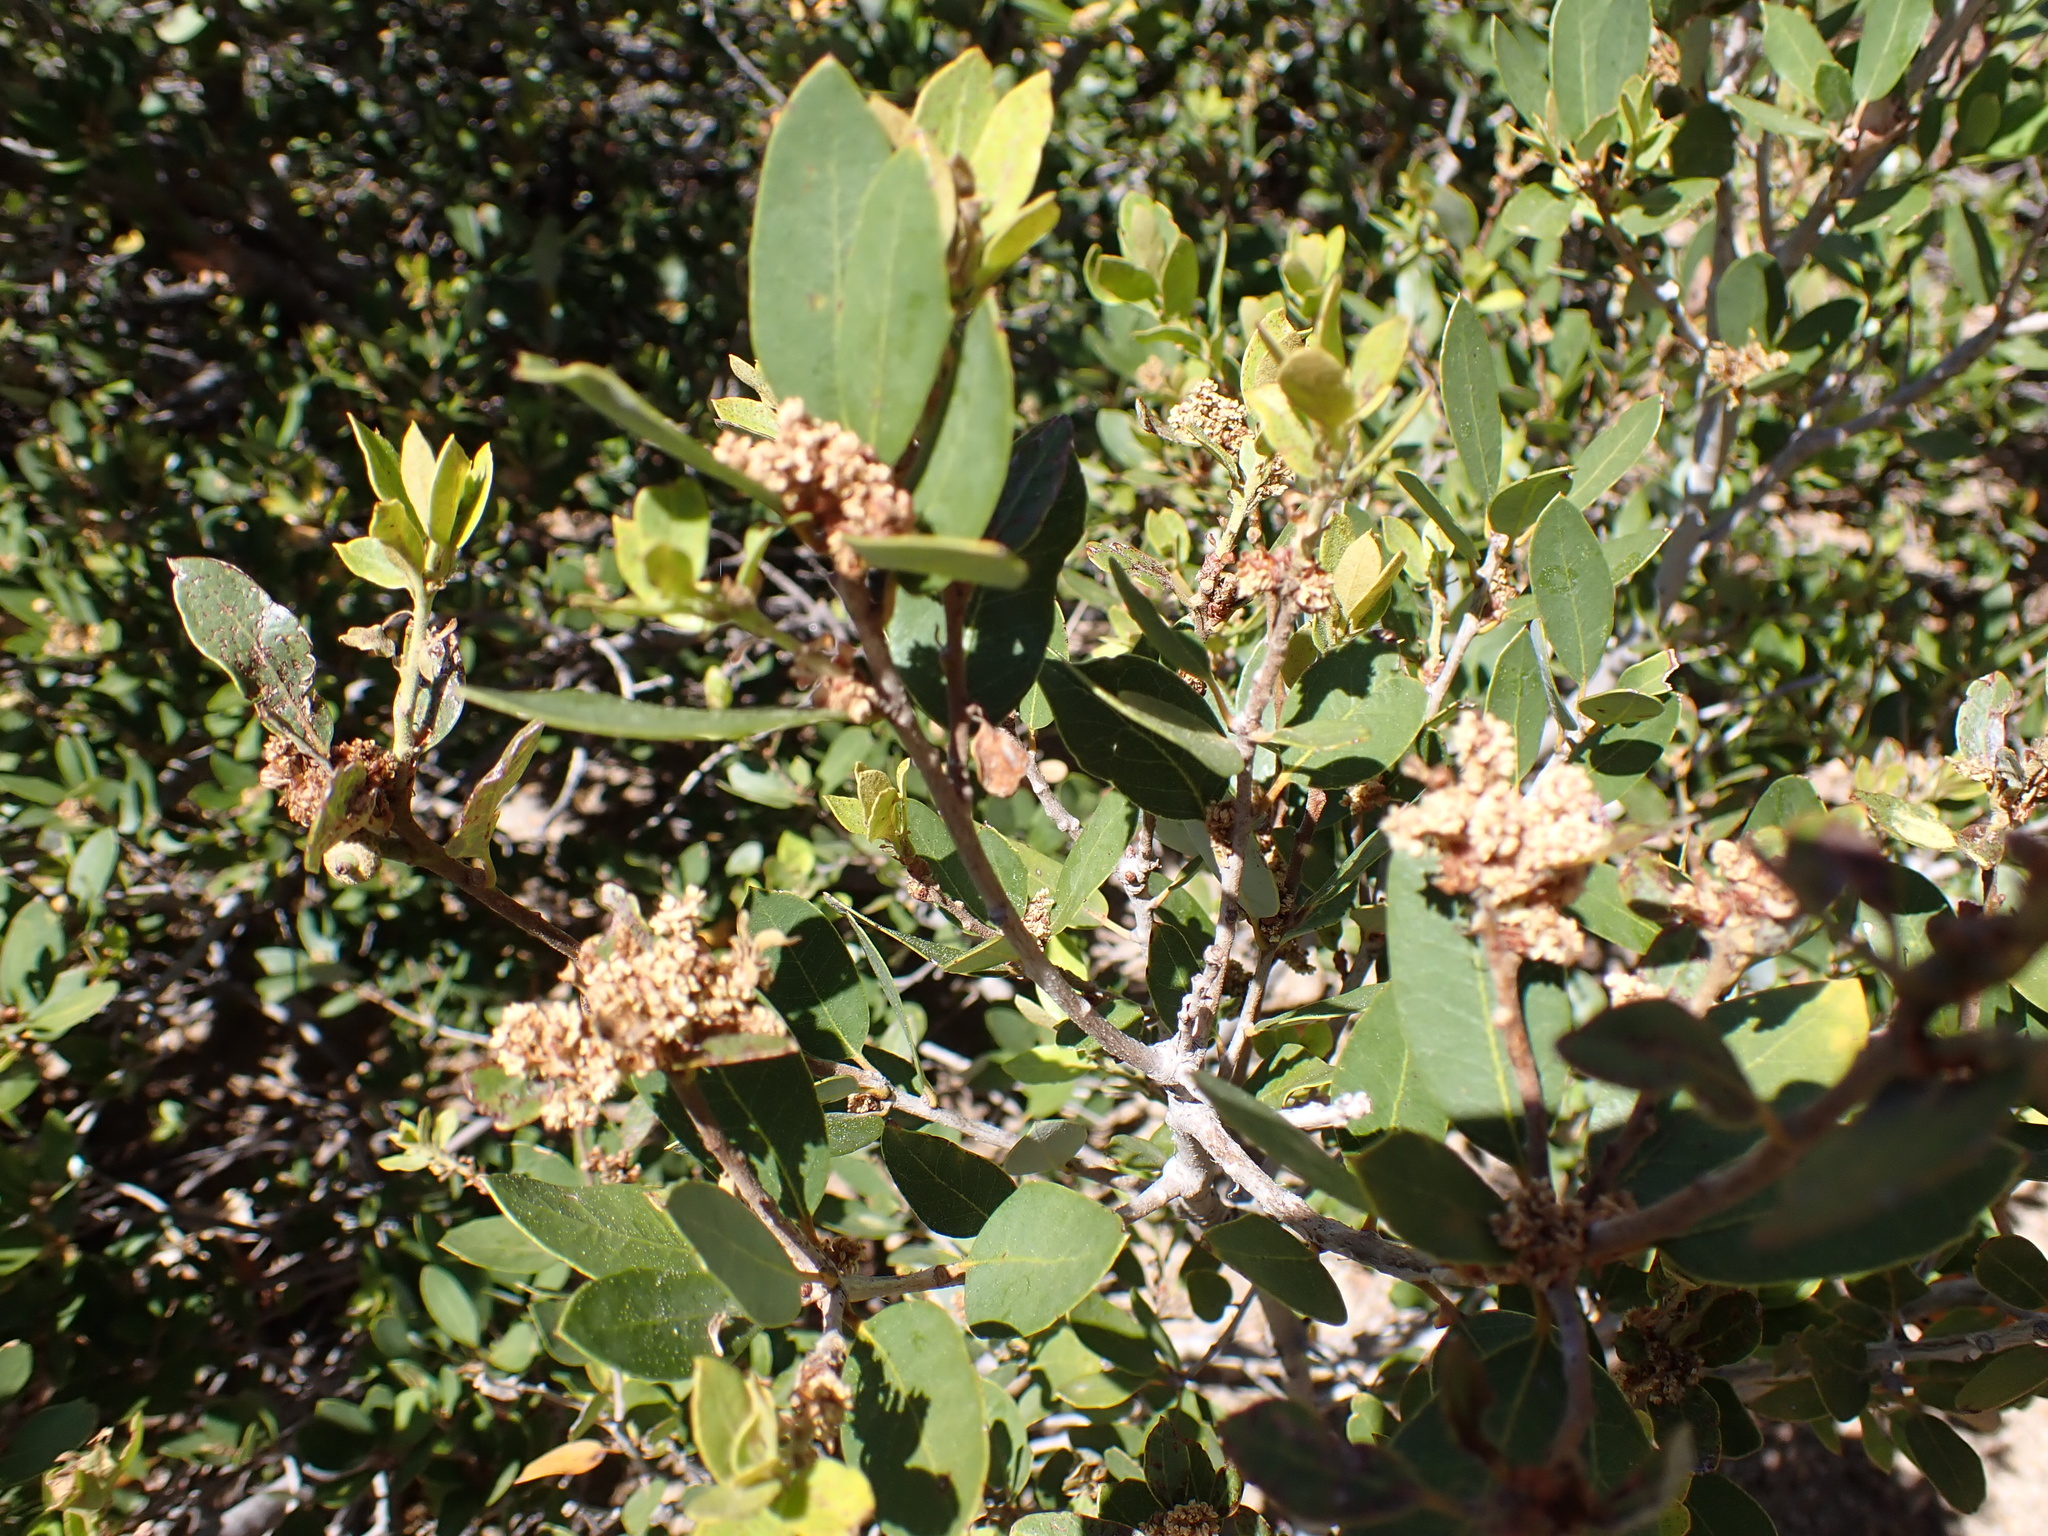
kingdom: Plantae
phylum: Tracheophyta
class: Magnoliopsida
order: Ericales
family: Ericaceae
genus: Arctostaphylos
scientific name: Arctostaphylos patula
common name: Green-leaf manzanita
